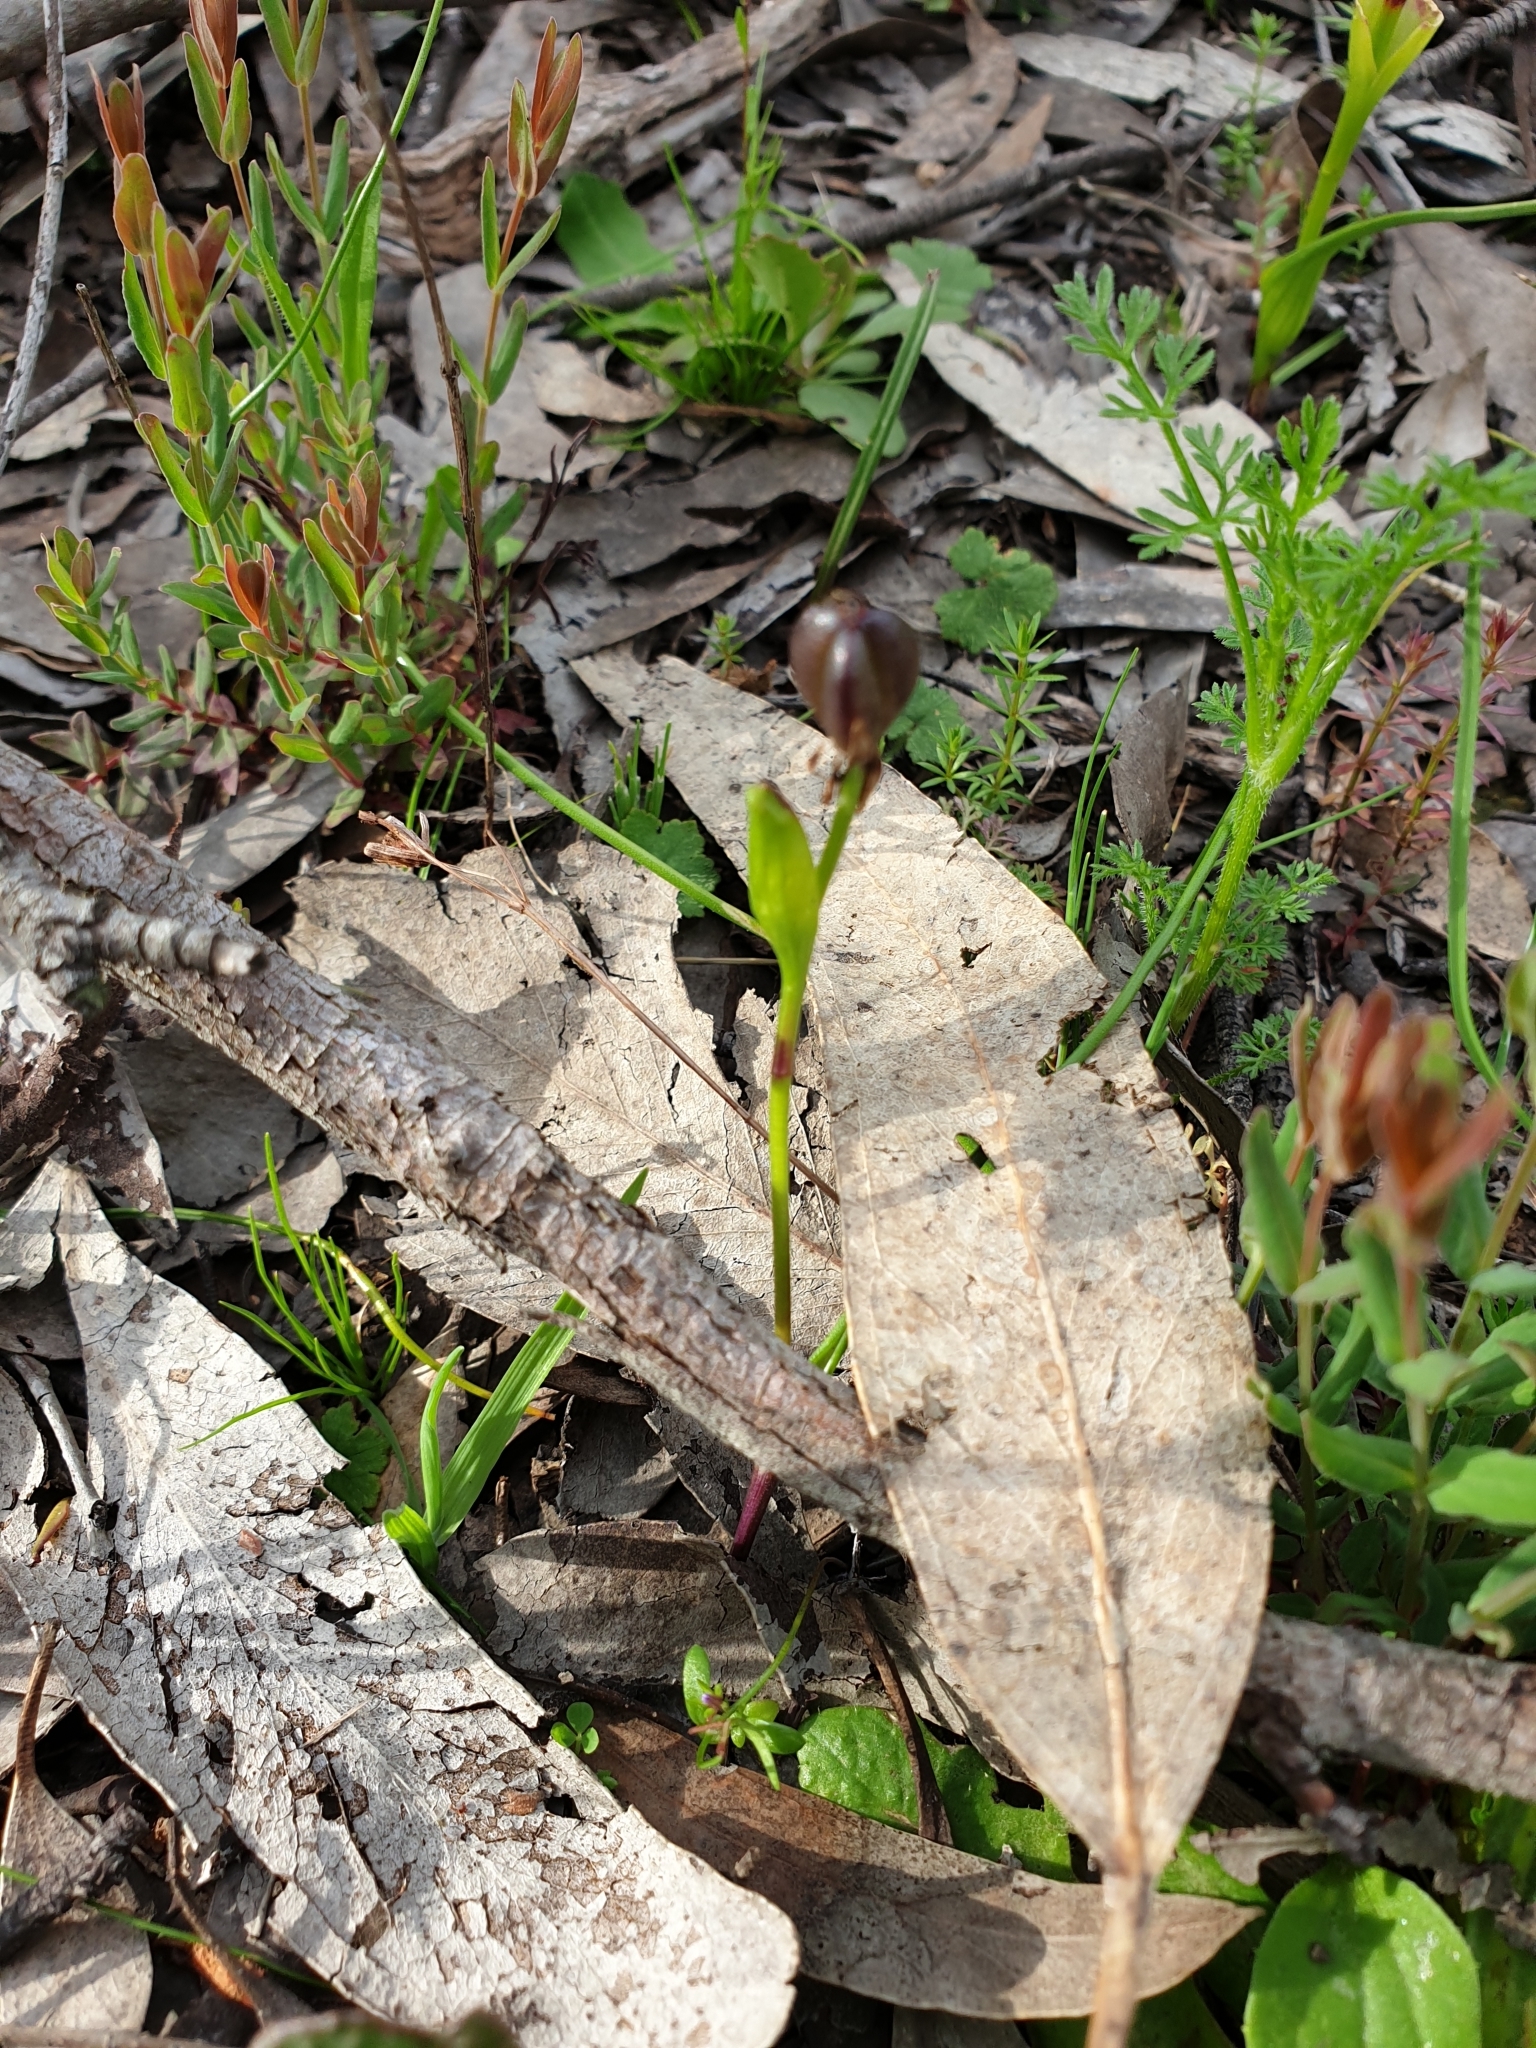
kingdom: Plantae
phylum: Tracheophyta
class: Liliopsida
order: Liliales
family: Colchicaceae
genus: Wurmbea
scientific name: Wurmbea dioica
